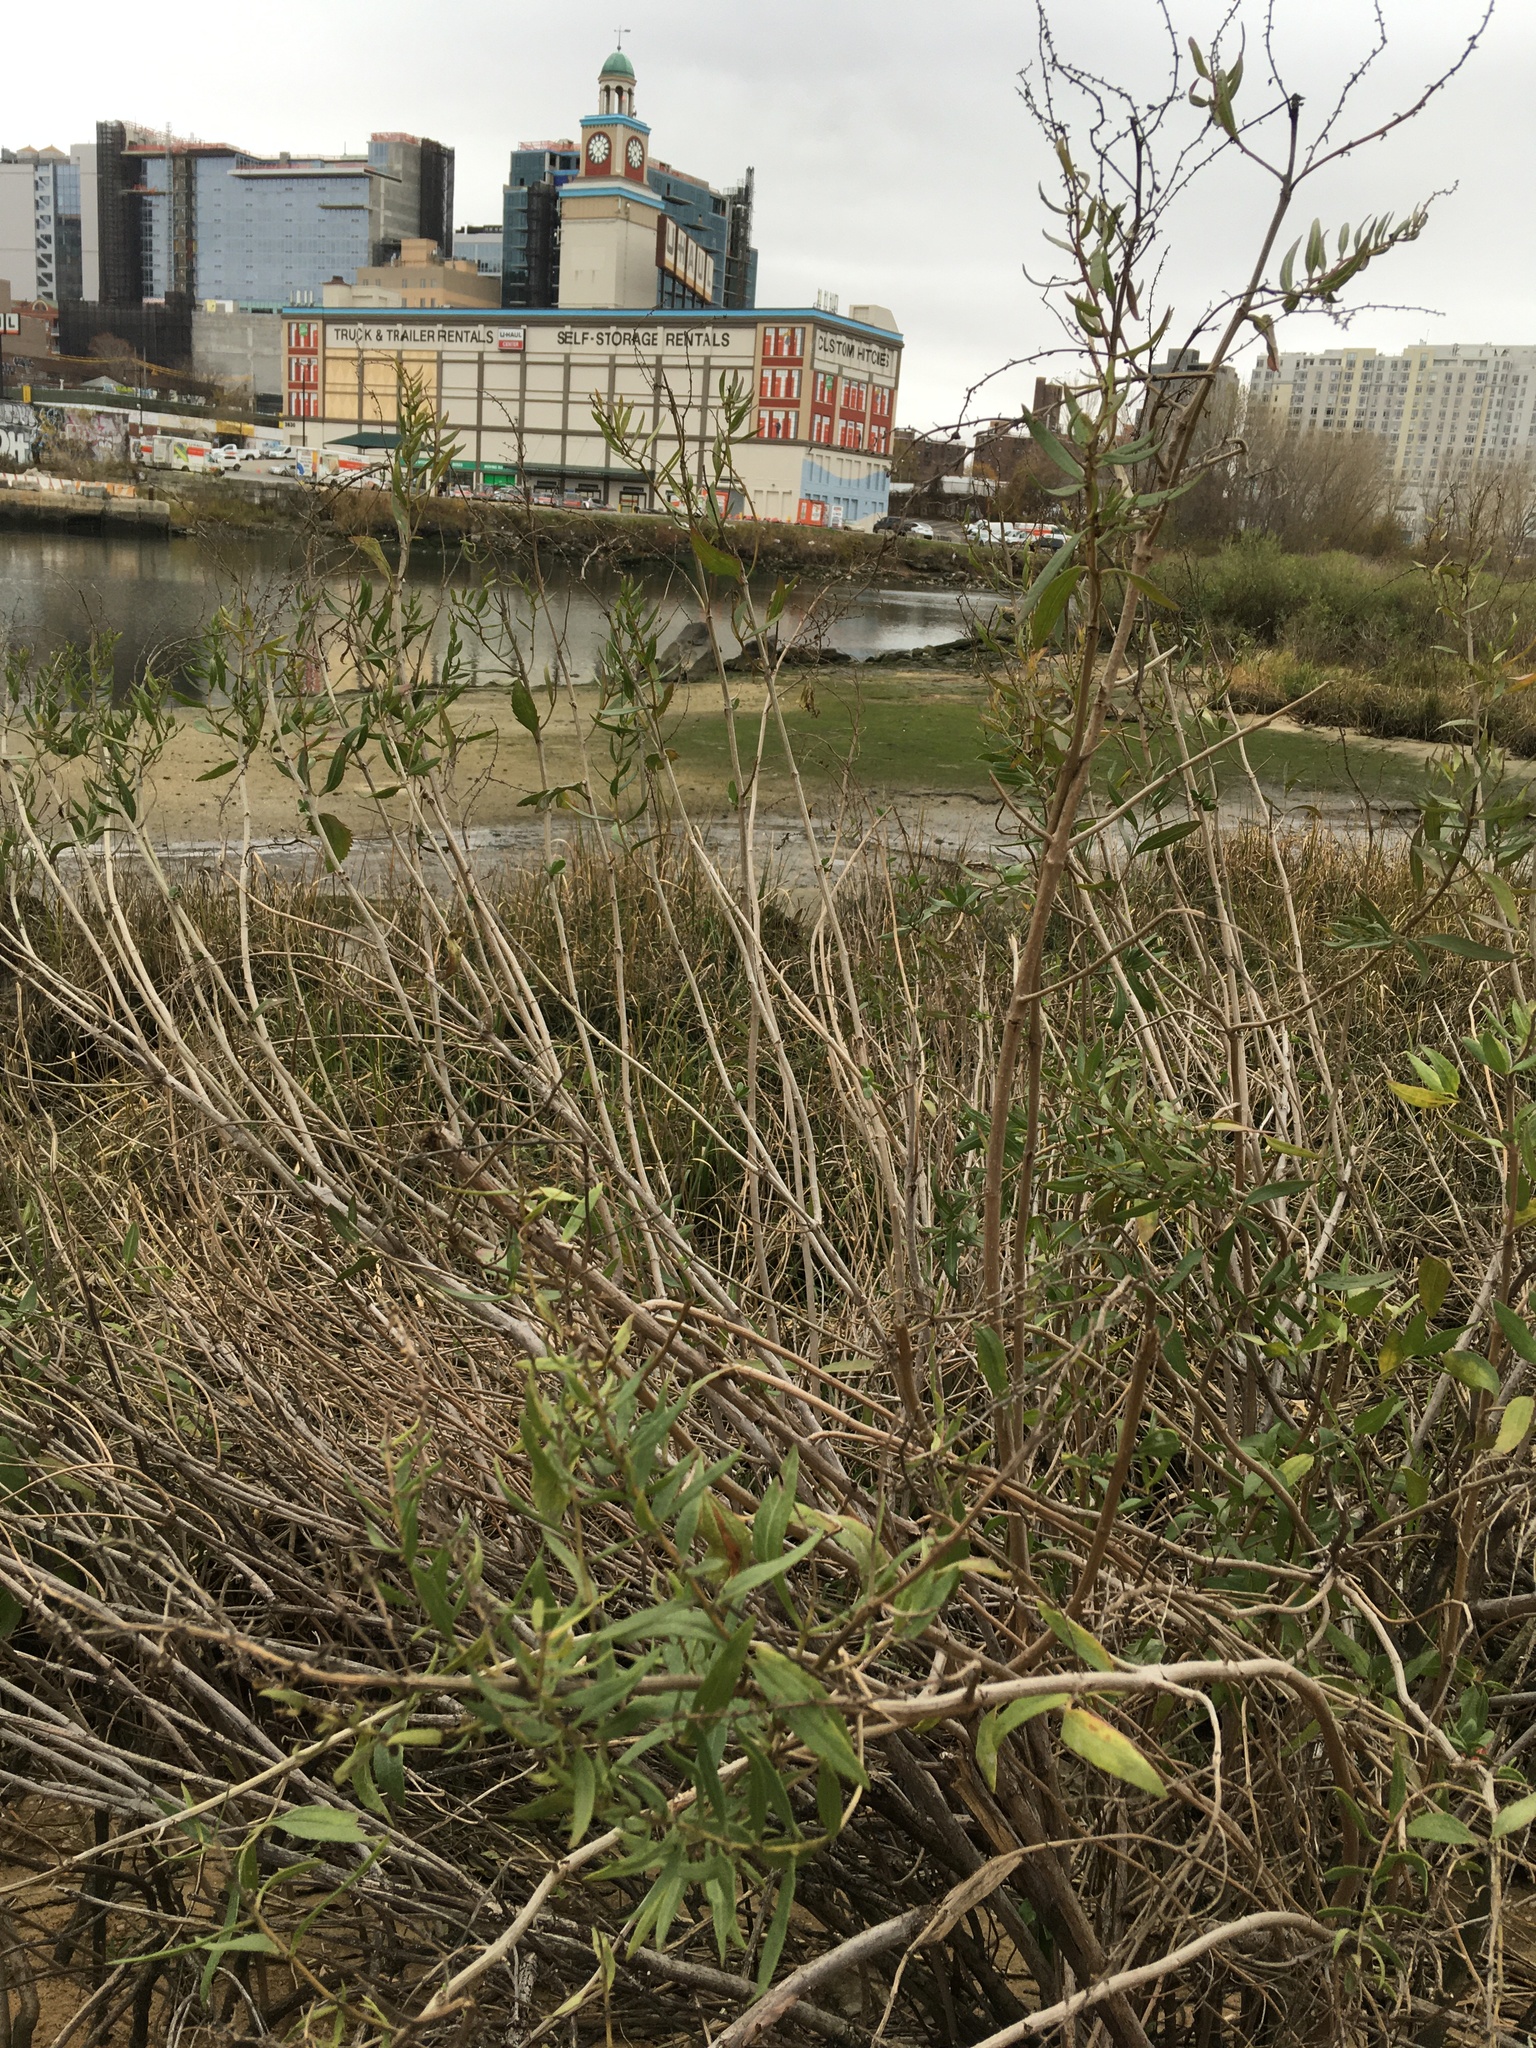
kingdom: Plantae
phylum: Tracheophyta
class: Magnoliopsida
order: Asterales
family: Asteraceae
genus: Iva
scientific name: Iva frutescens
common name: Big-leaved marsh-elder
